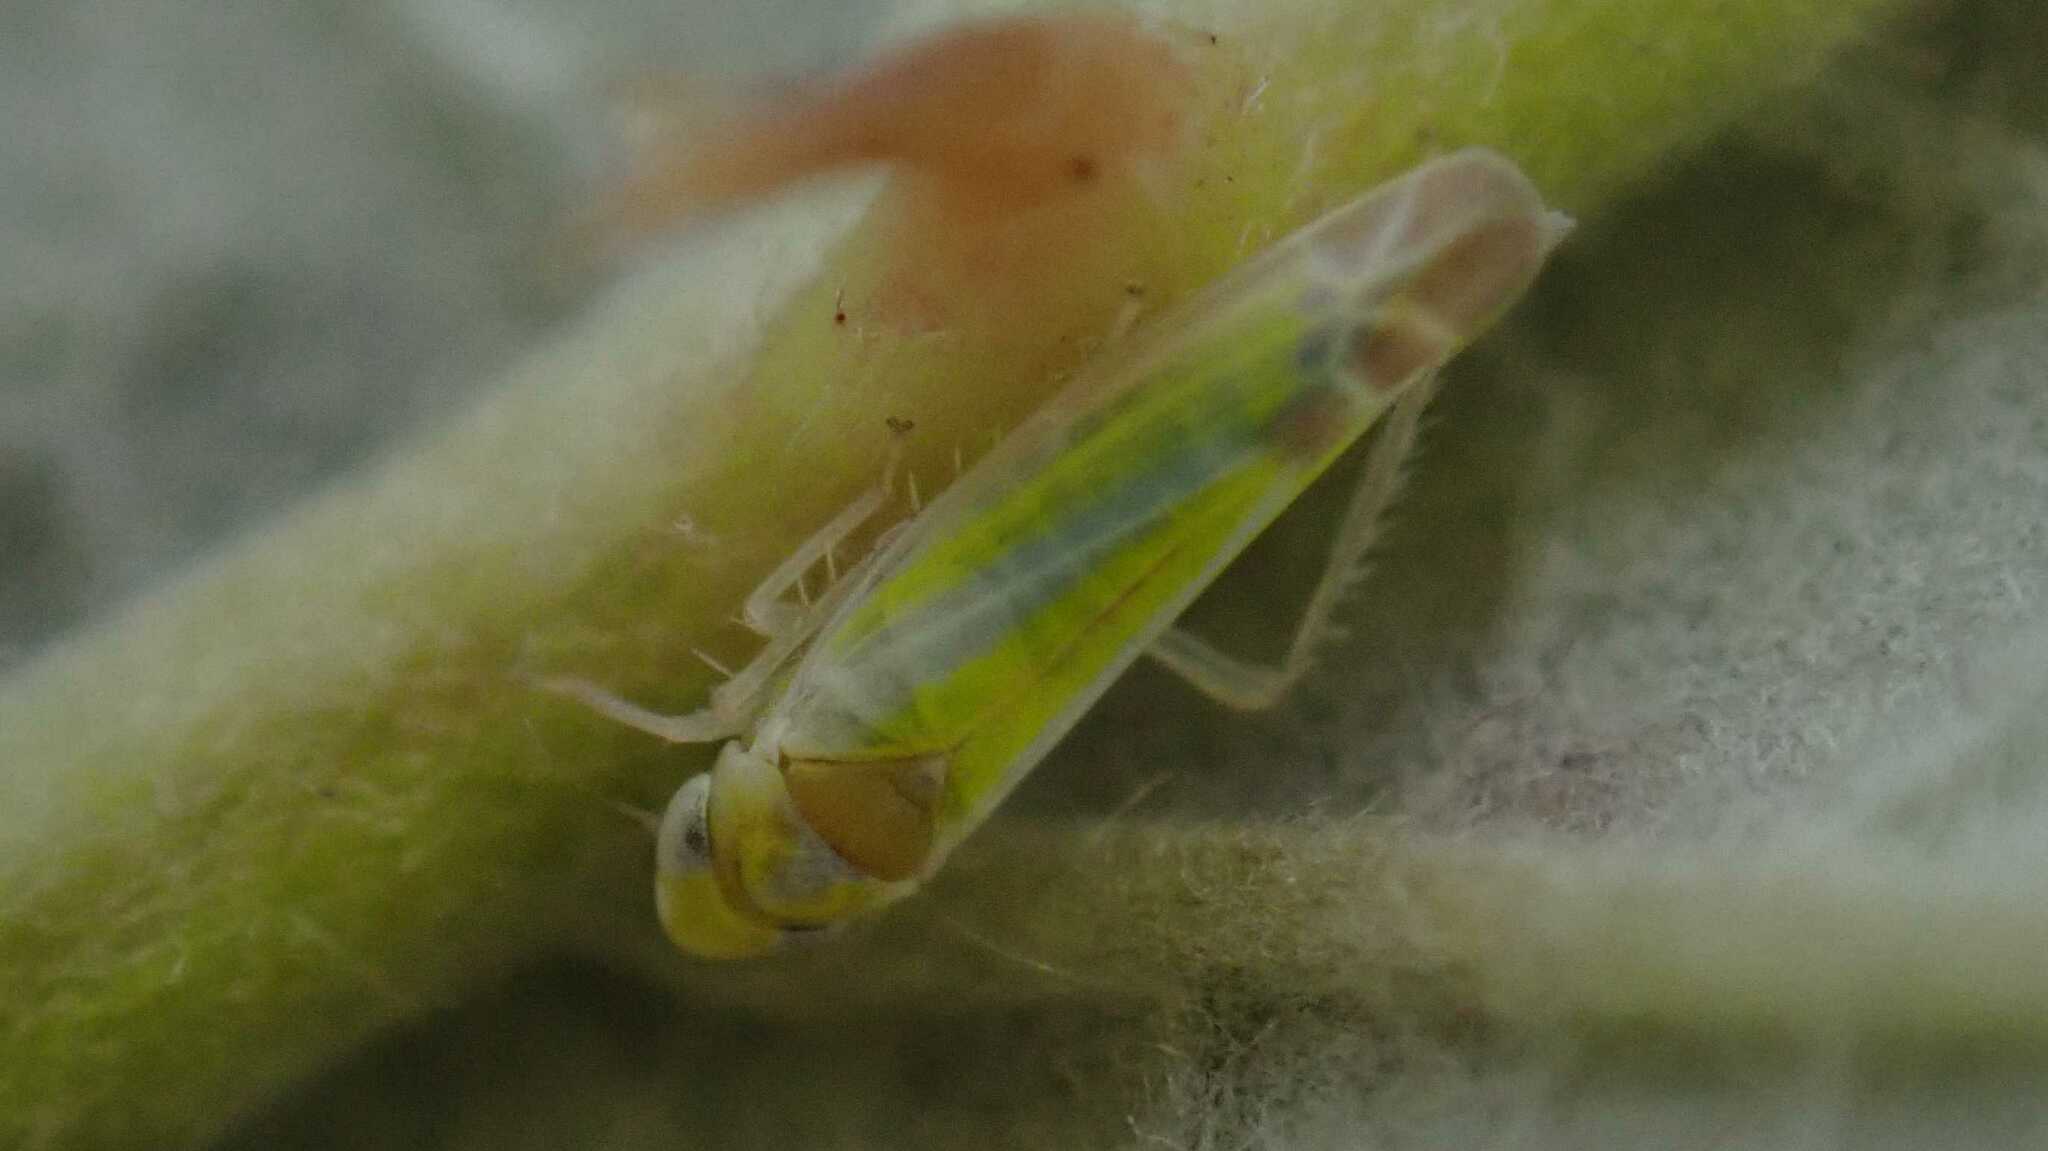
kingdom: Animalia
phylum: Arthropoda
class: Insecta
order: Hemiptera
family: Cicadellidae
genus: Lindbergina
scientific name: Lindbergina aurovittata
